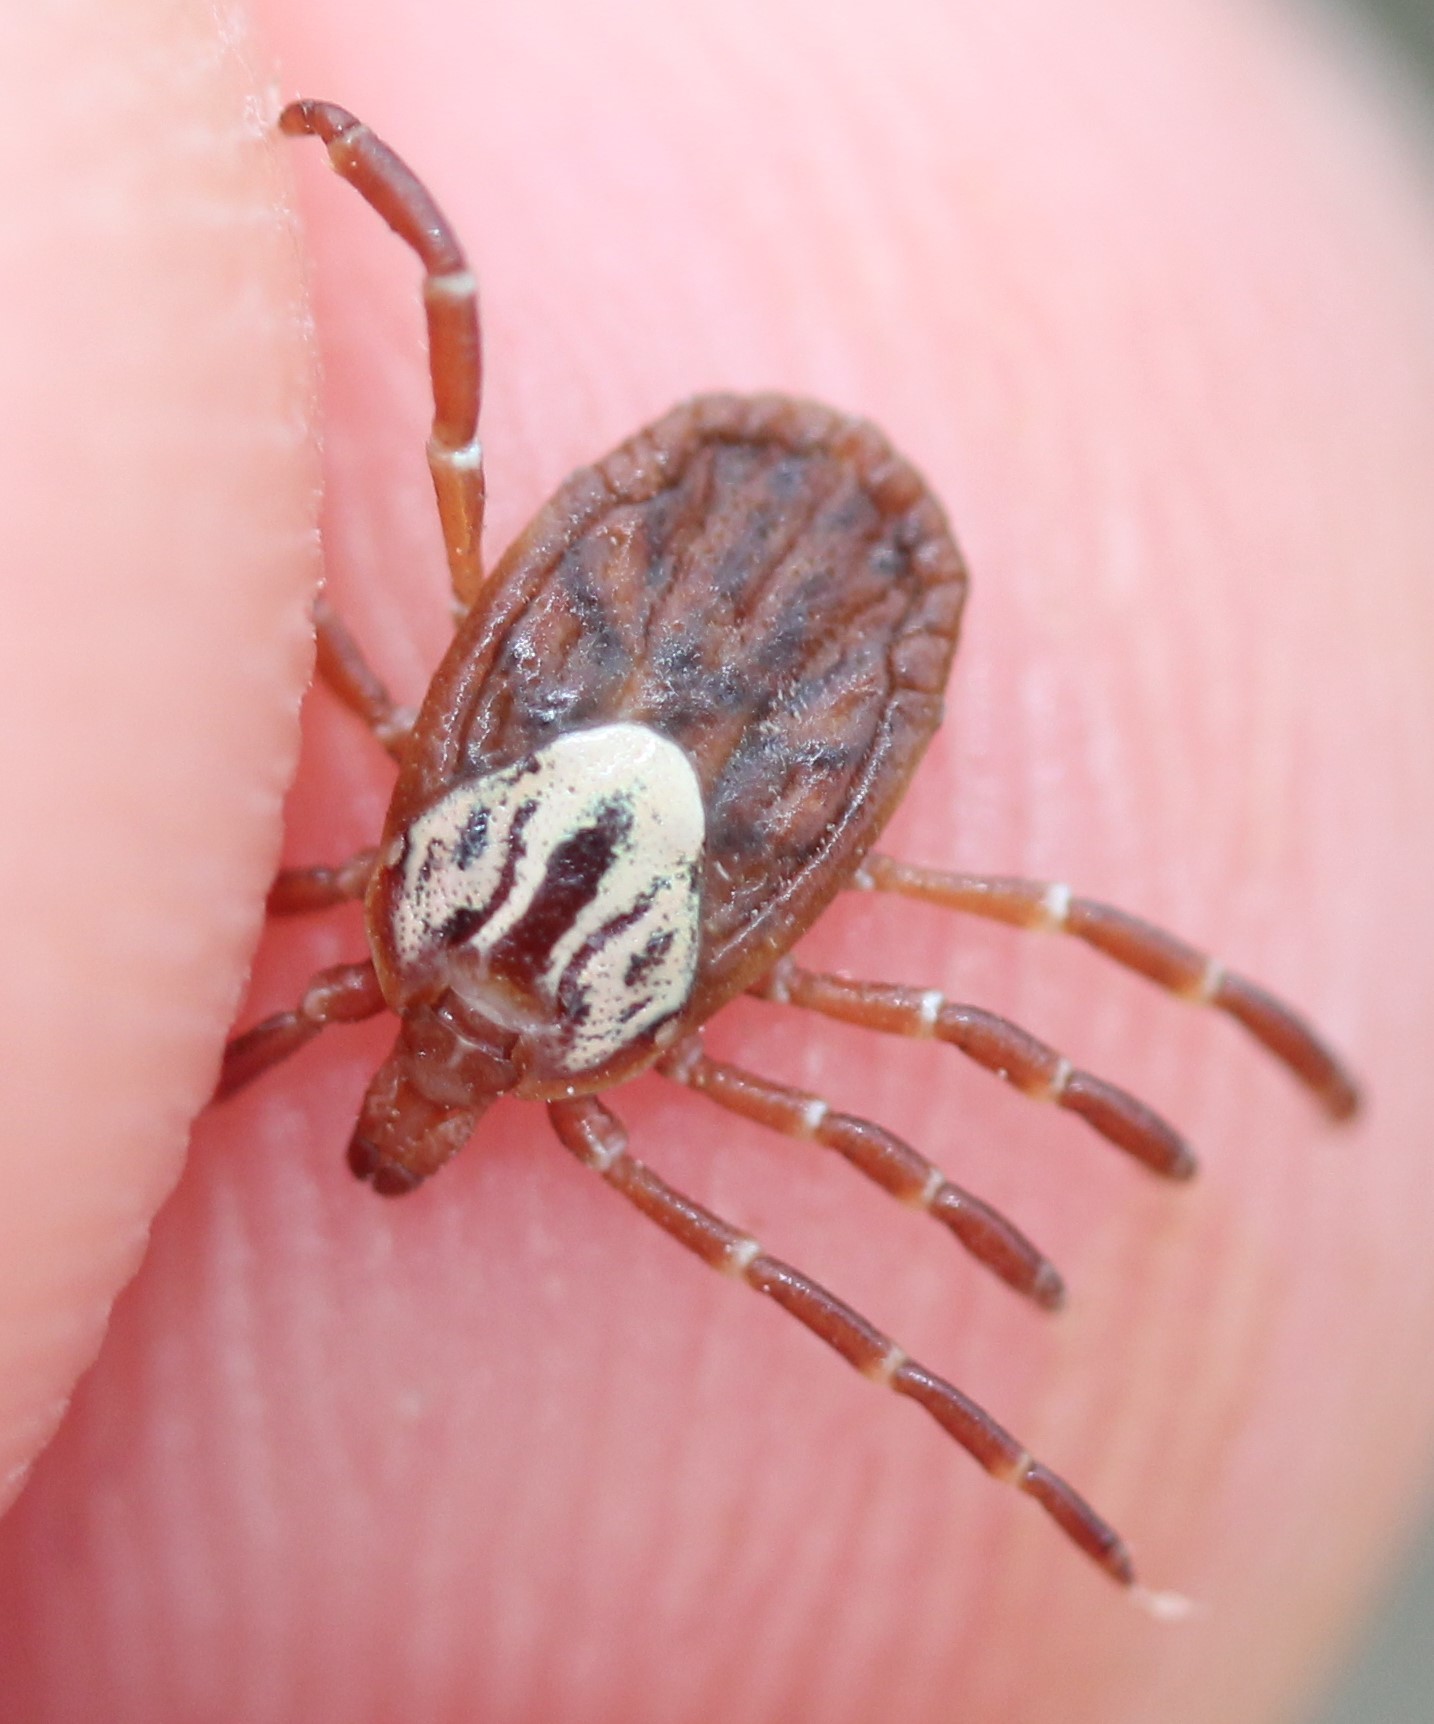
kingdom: Animalia
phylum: Arthropoda
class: Arachnida
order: Ixodida
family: Ixodidae
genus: Amblyomma
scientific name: Amblyomma maculatum
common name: Gulf coast tick
